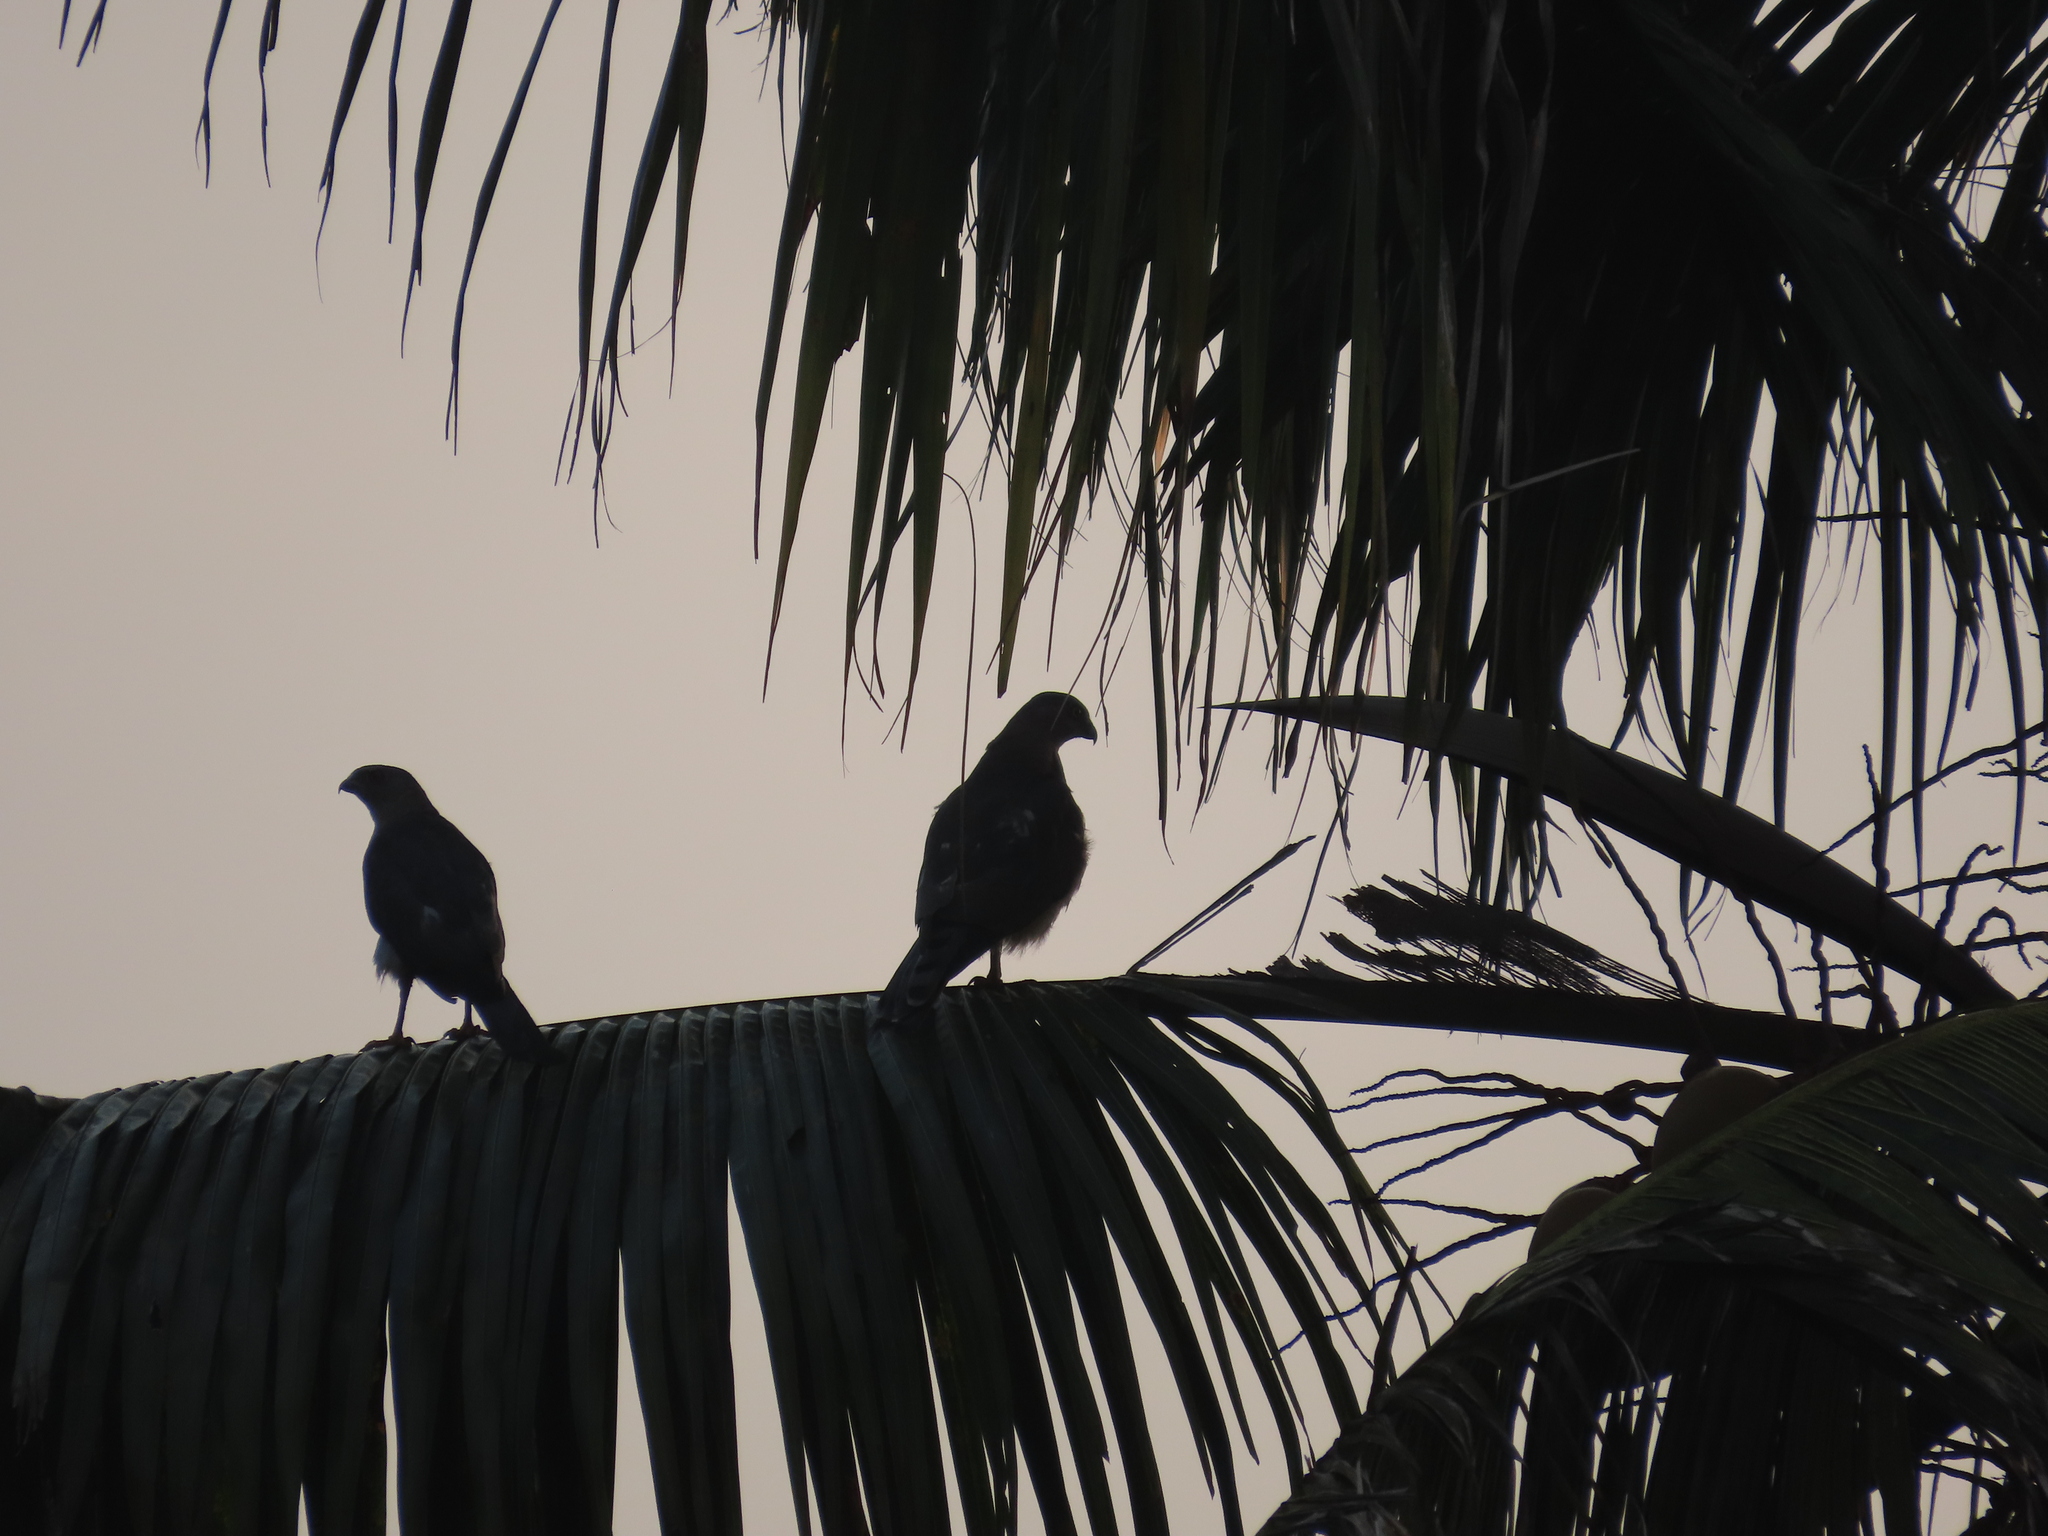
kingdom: Animalia
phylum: Chordata
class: Aves
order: Accipitriformes
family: Accipitridae
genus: Accipiter
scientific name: Accipiter badius
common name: Shikra
